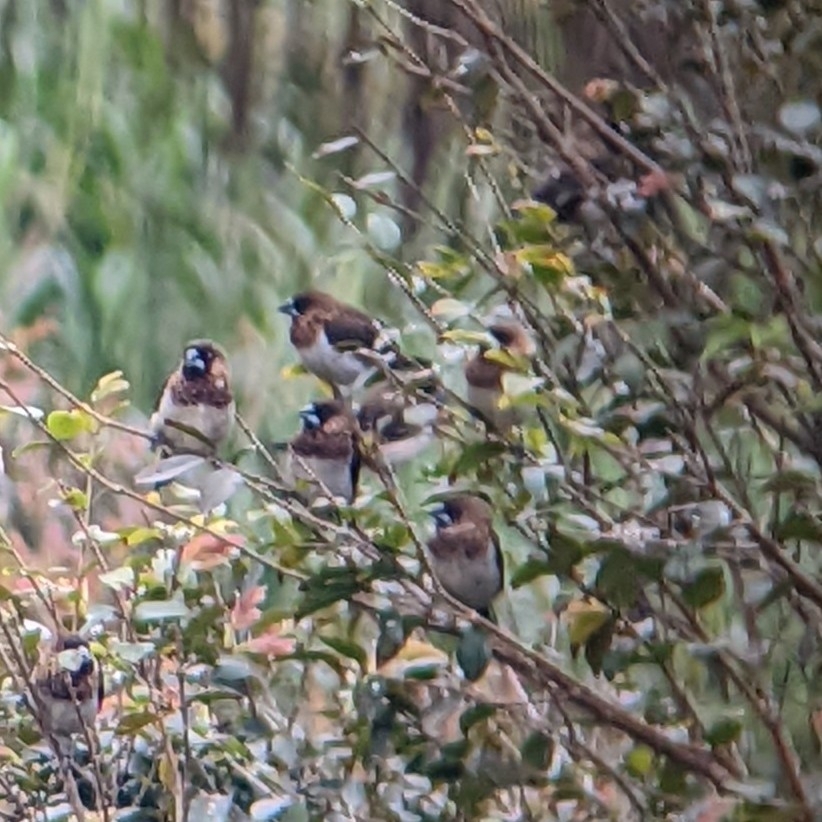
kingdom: Animalia
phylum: Chordata
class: Aves
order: Passeriformes
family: Estrildidae
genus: Lonchura
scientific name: Lonchura striata
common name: White-rumped munia
